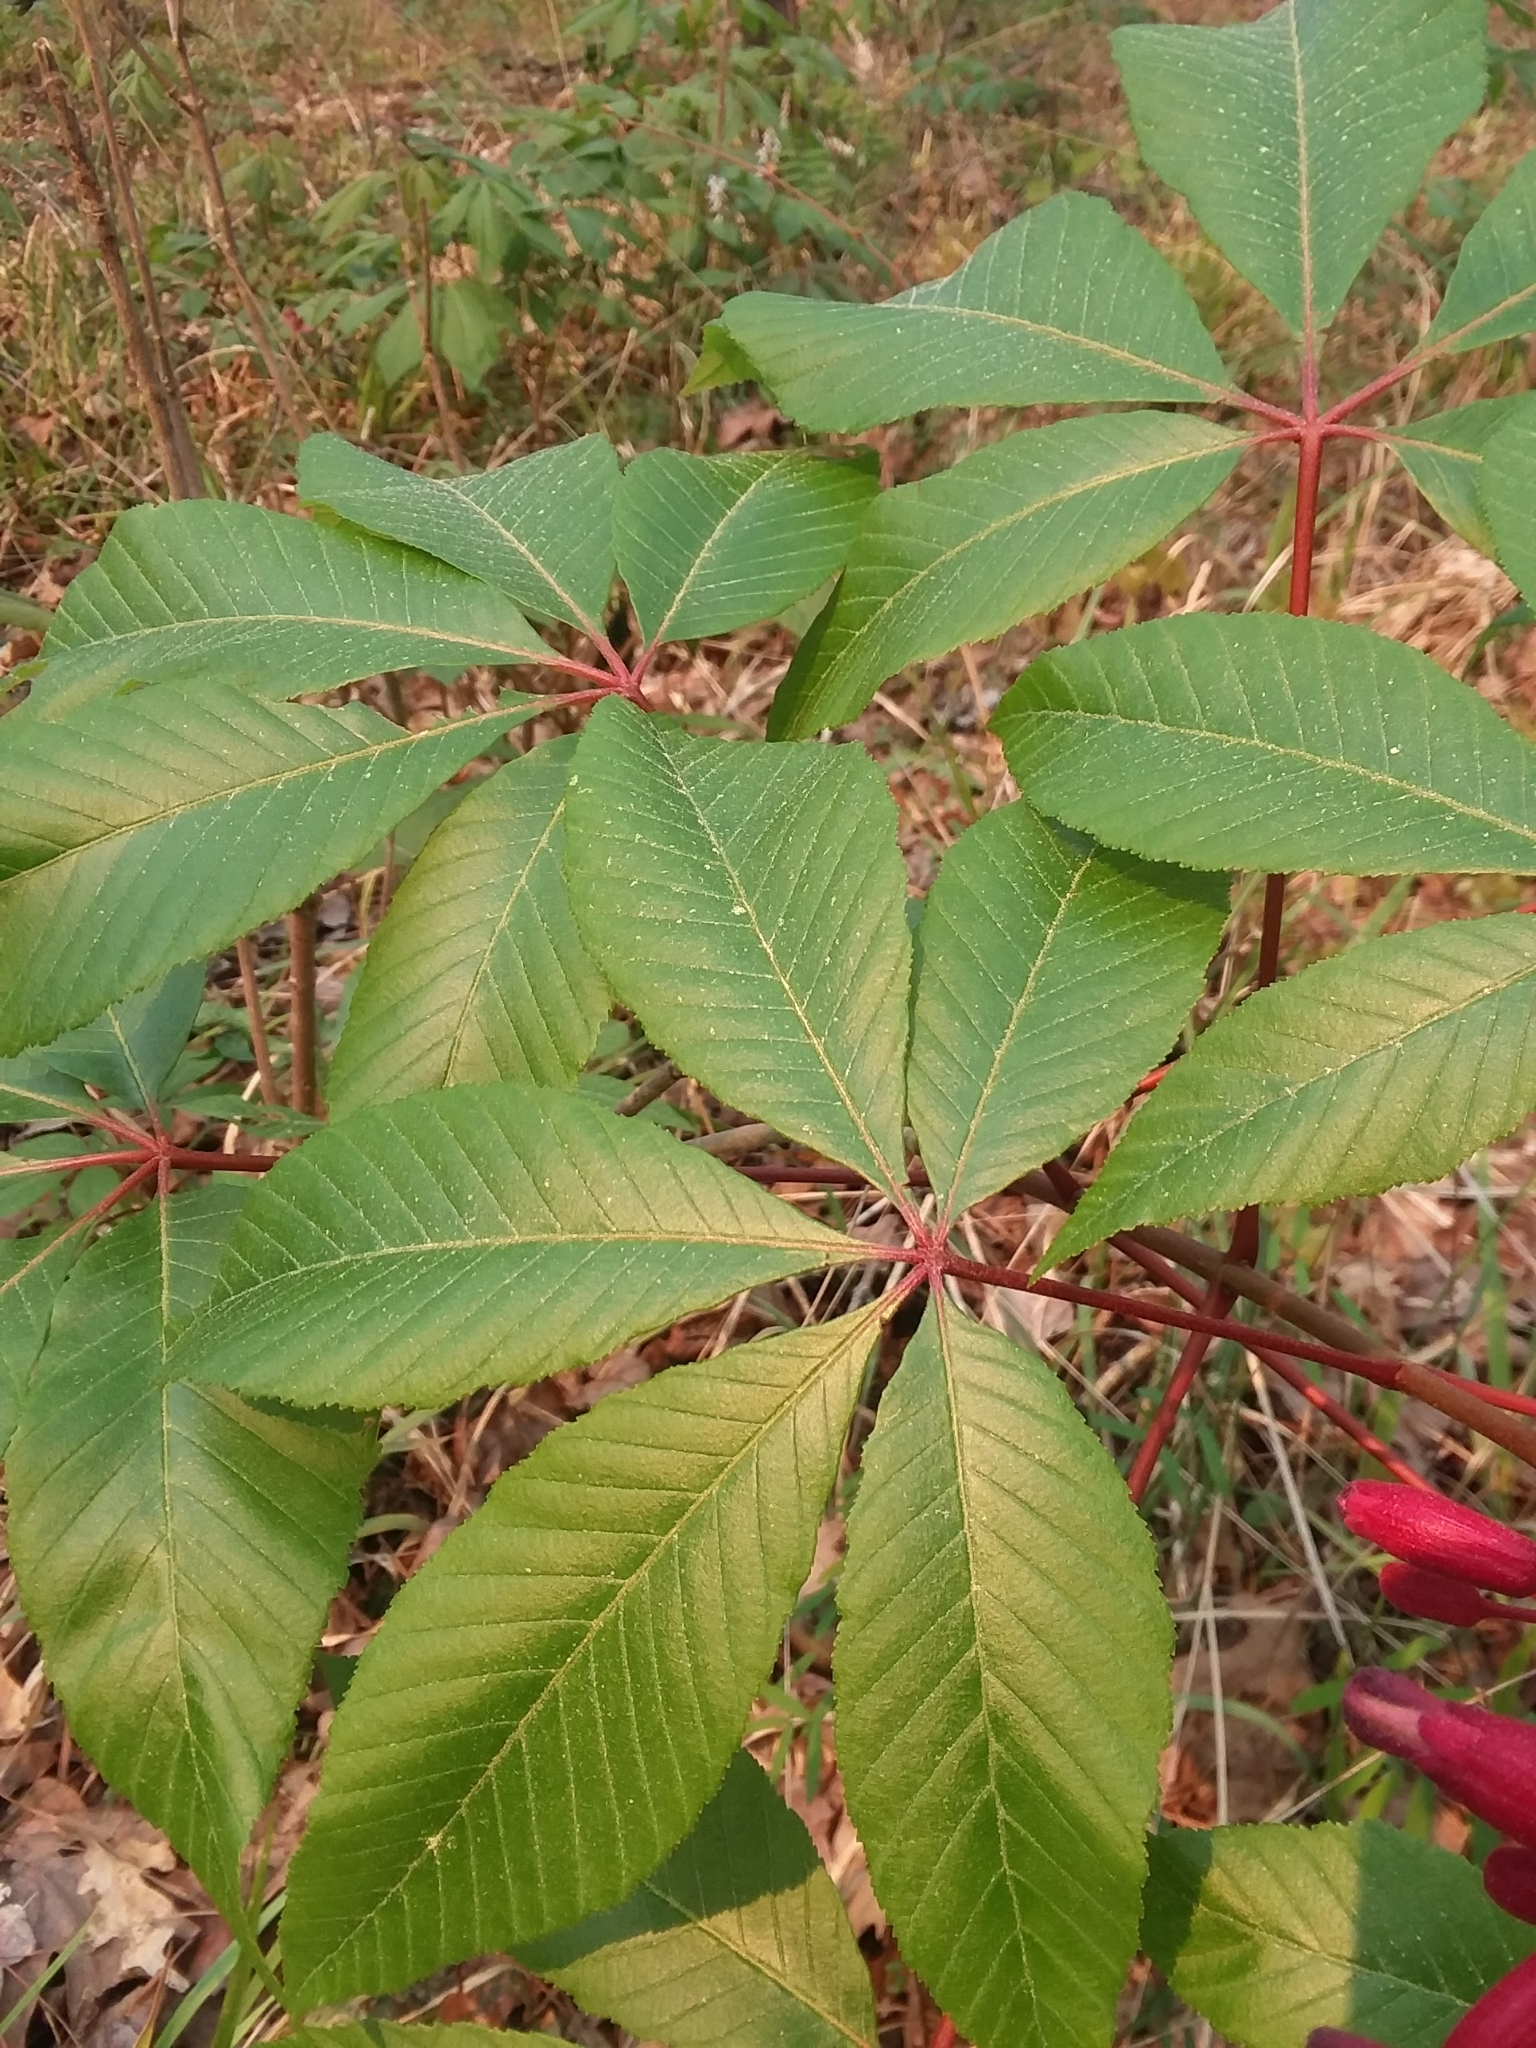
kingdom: Plantae
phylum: Tracheophyta
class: Magnoliopsida
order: Sapindales
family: Sapindaceae
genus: Aesculus
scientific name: Aesculus pavia
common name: Red buckeye
